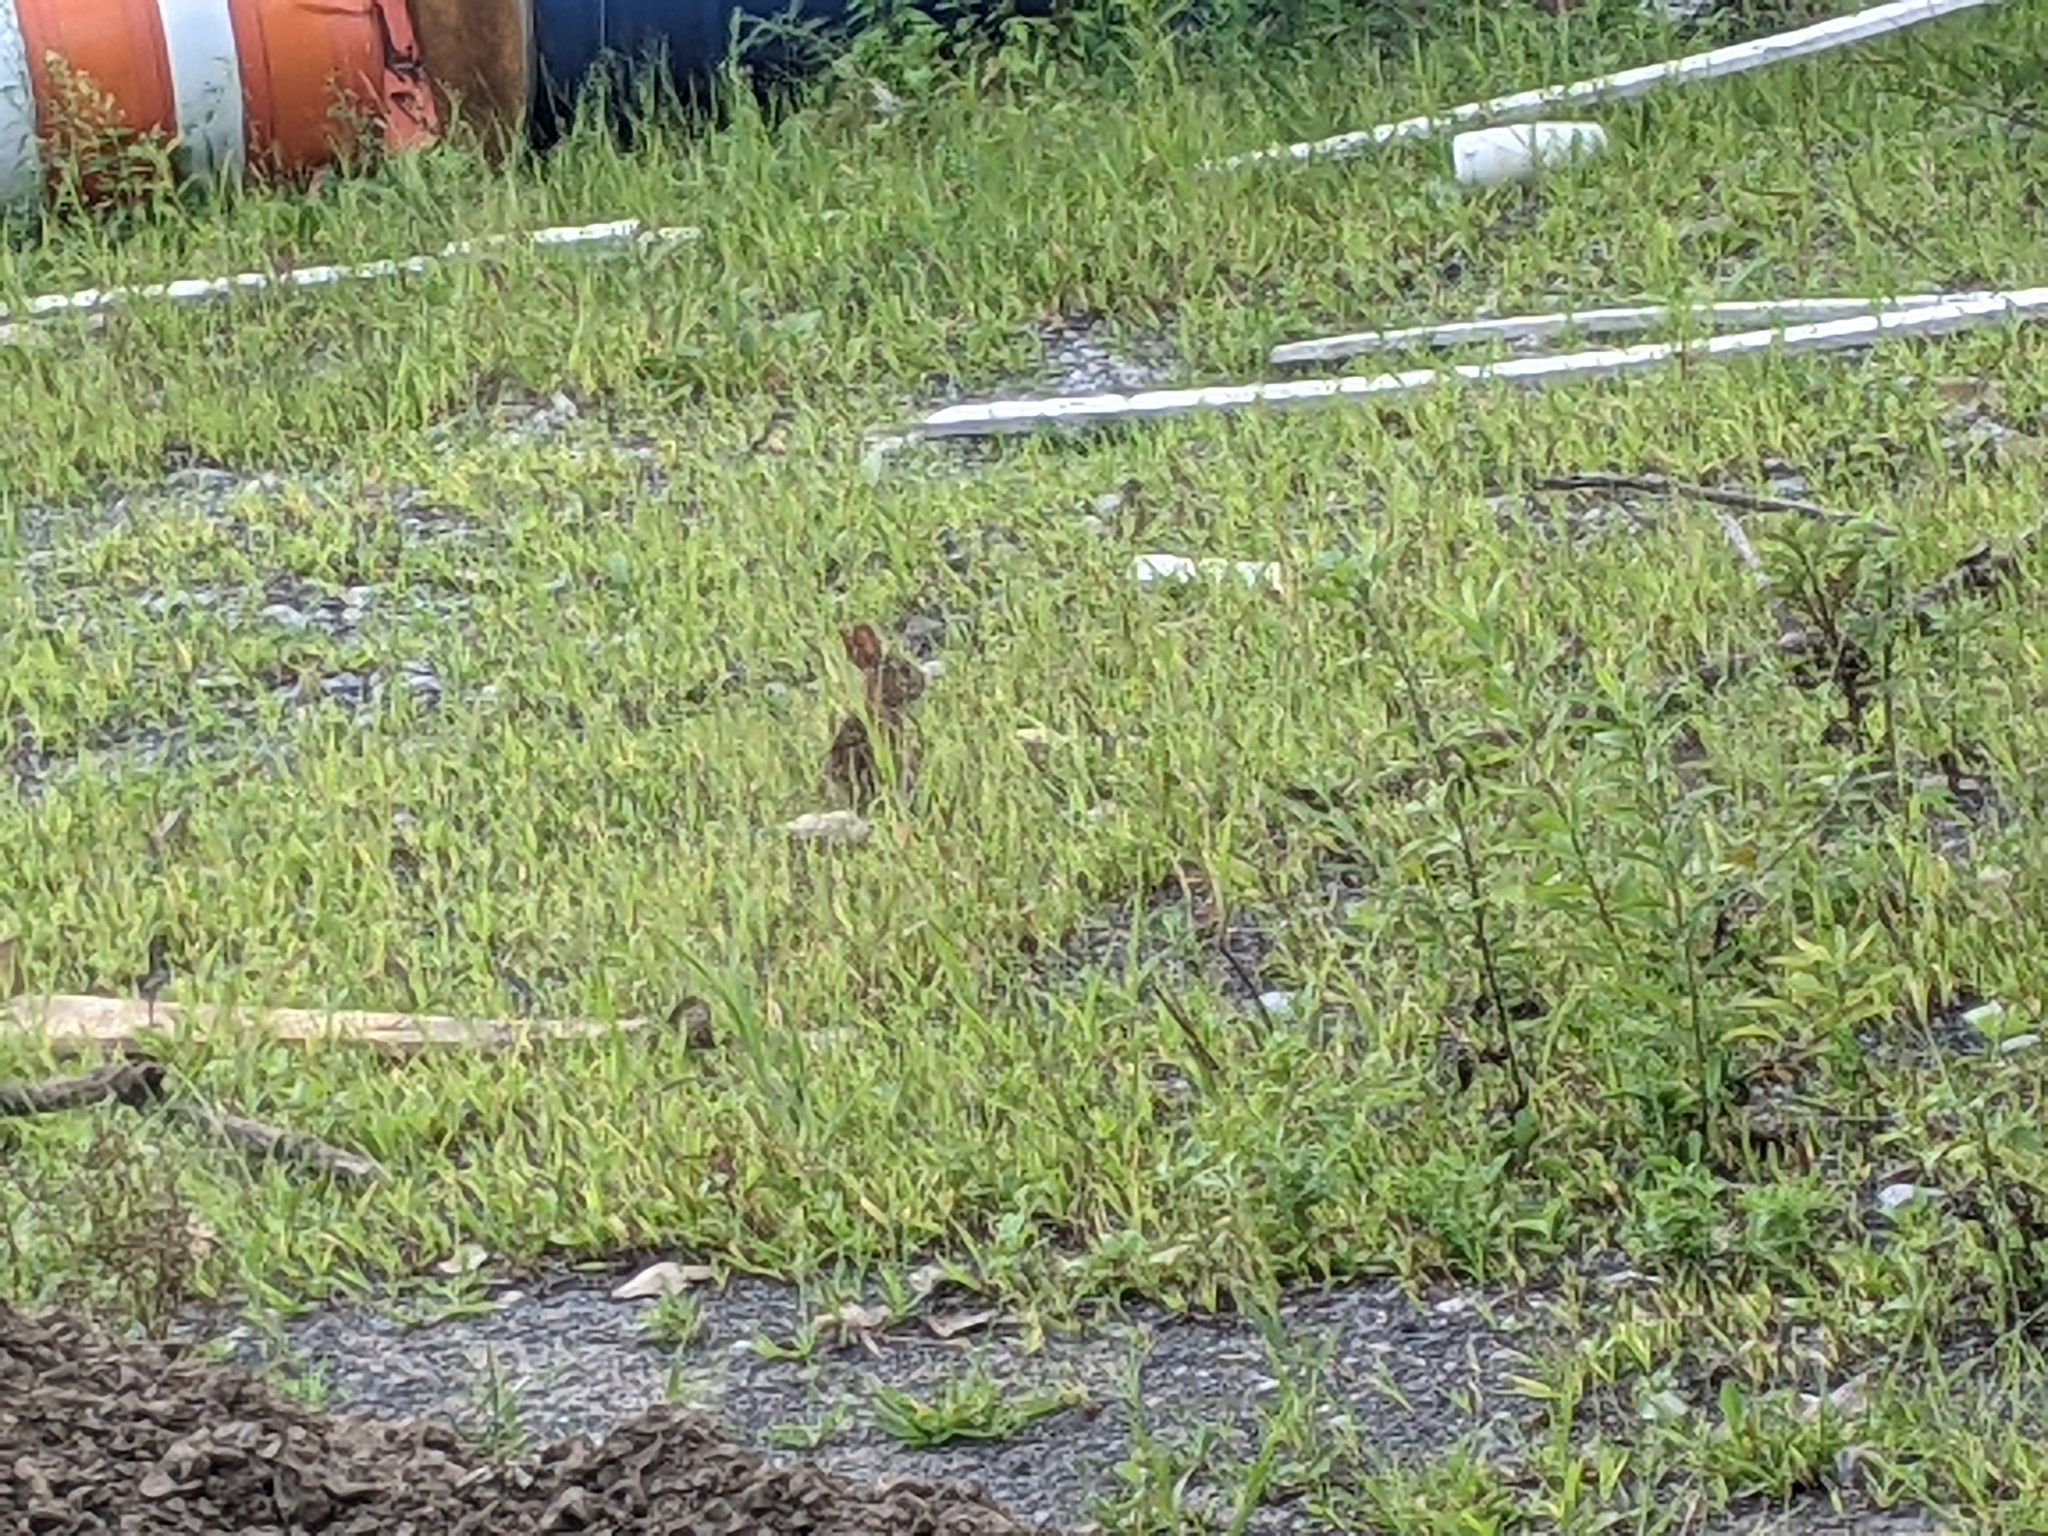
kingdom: Animalia
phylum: Chordata
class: Mammalia
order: Lagomorpha
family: Leporidae
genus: Sylvilagus
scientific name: Sylvilagus floridanus
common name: Eastern cottontail
